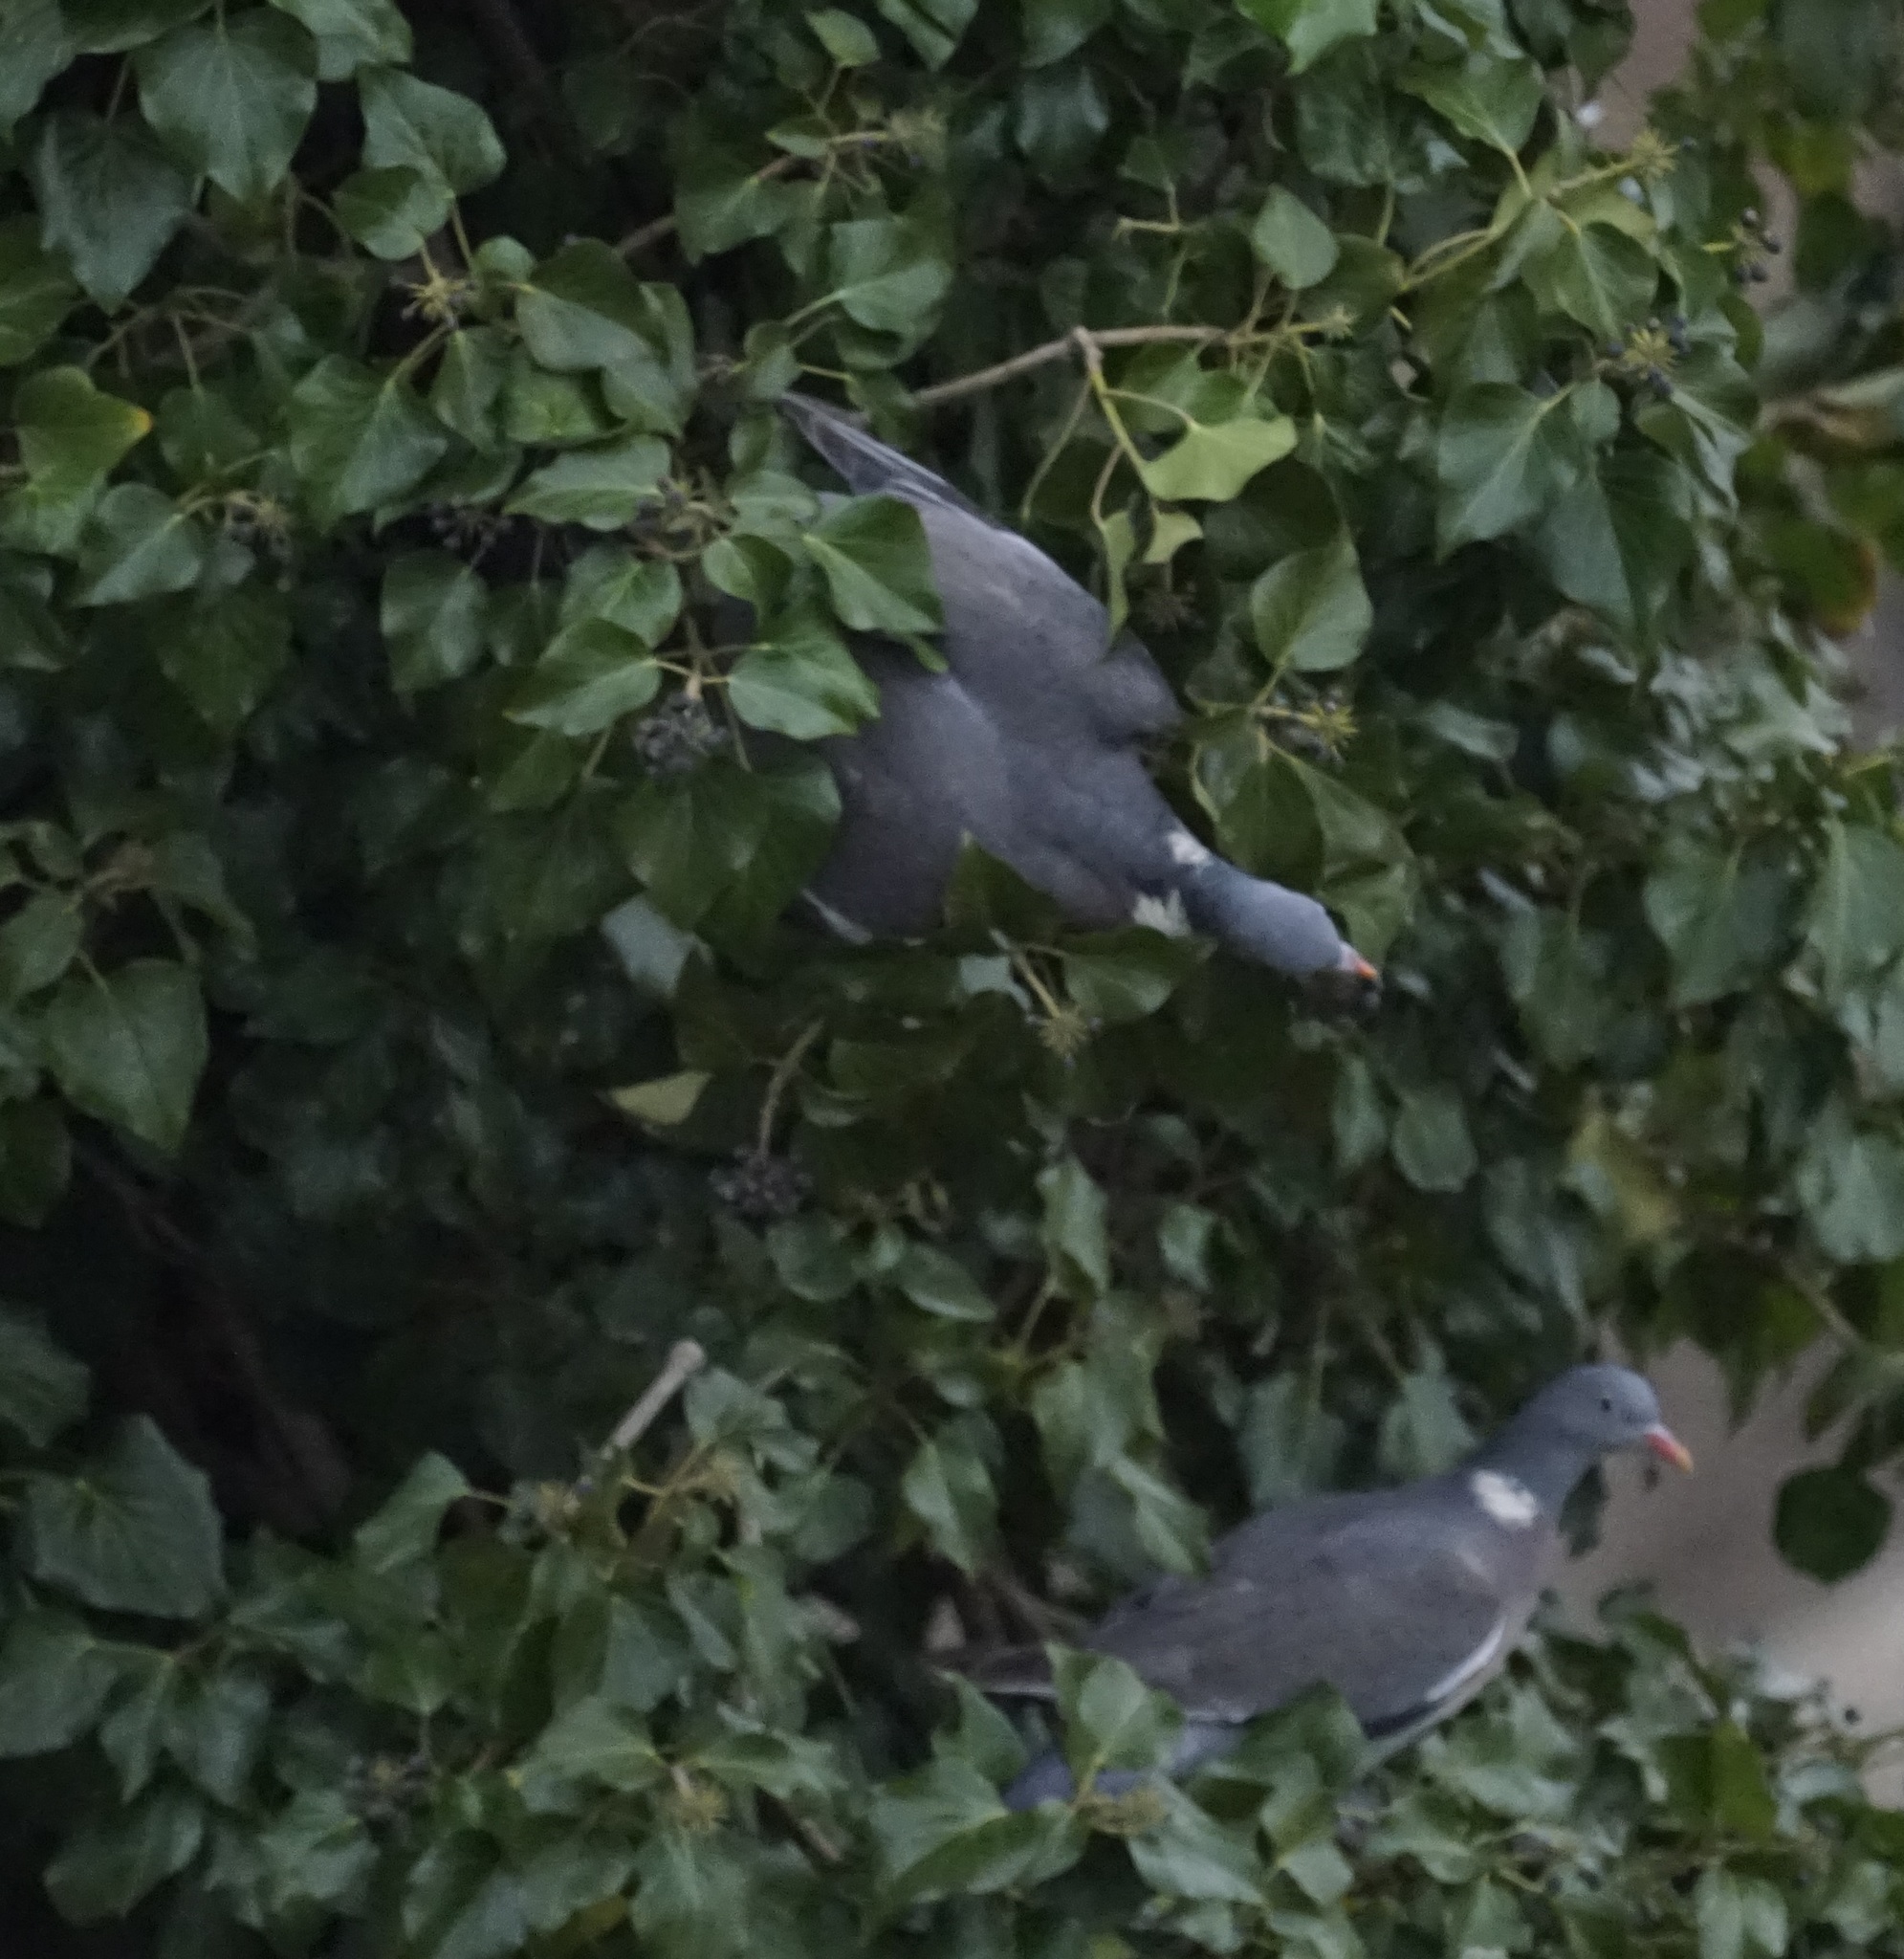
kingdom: Animalia
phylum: Chordata
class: Aves
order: Columbiformes
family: Columbidae
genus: Columba
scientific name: Columba palumbus
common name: Common wood pigeon
